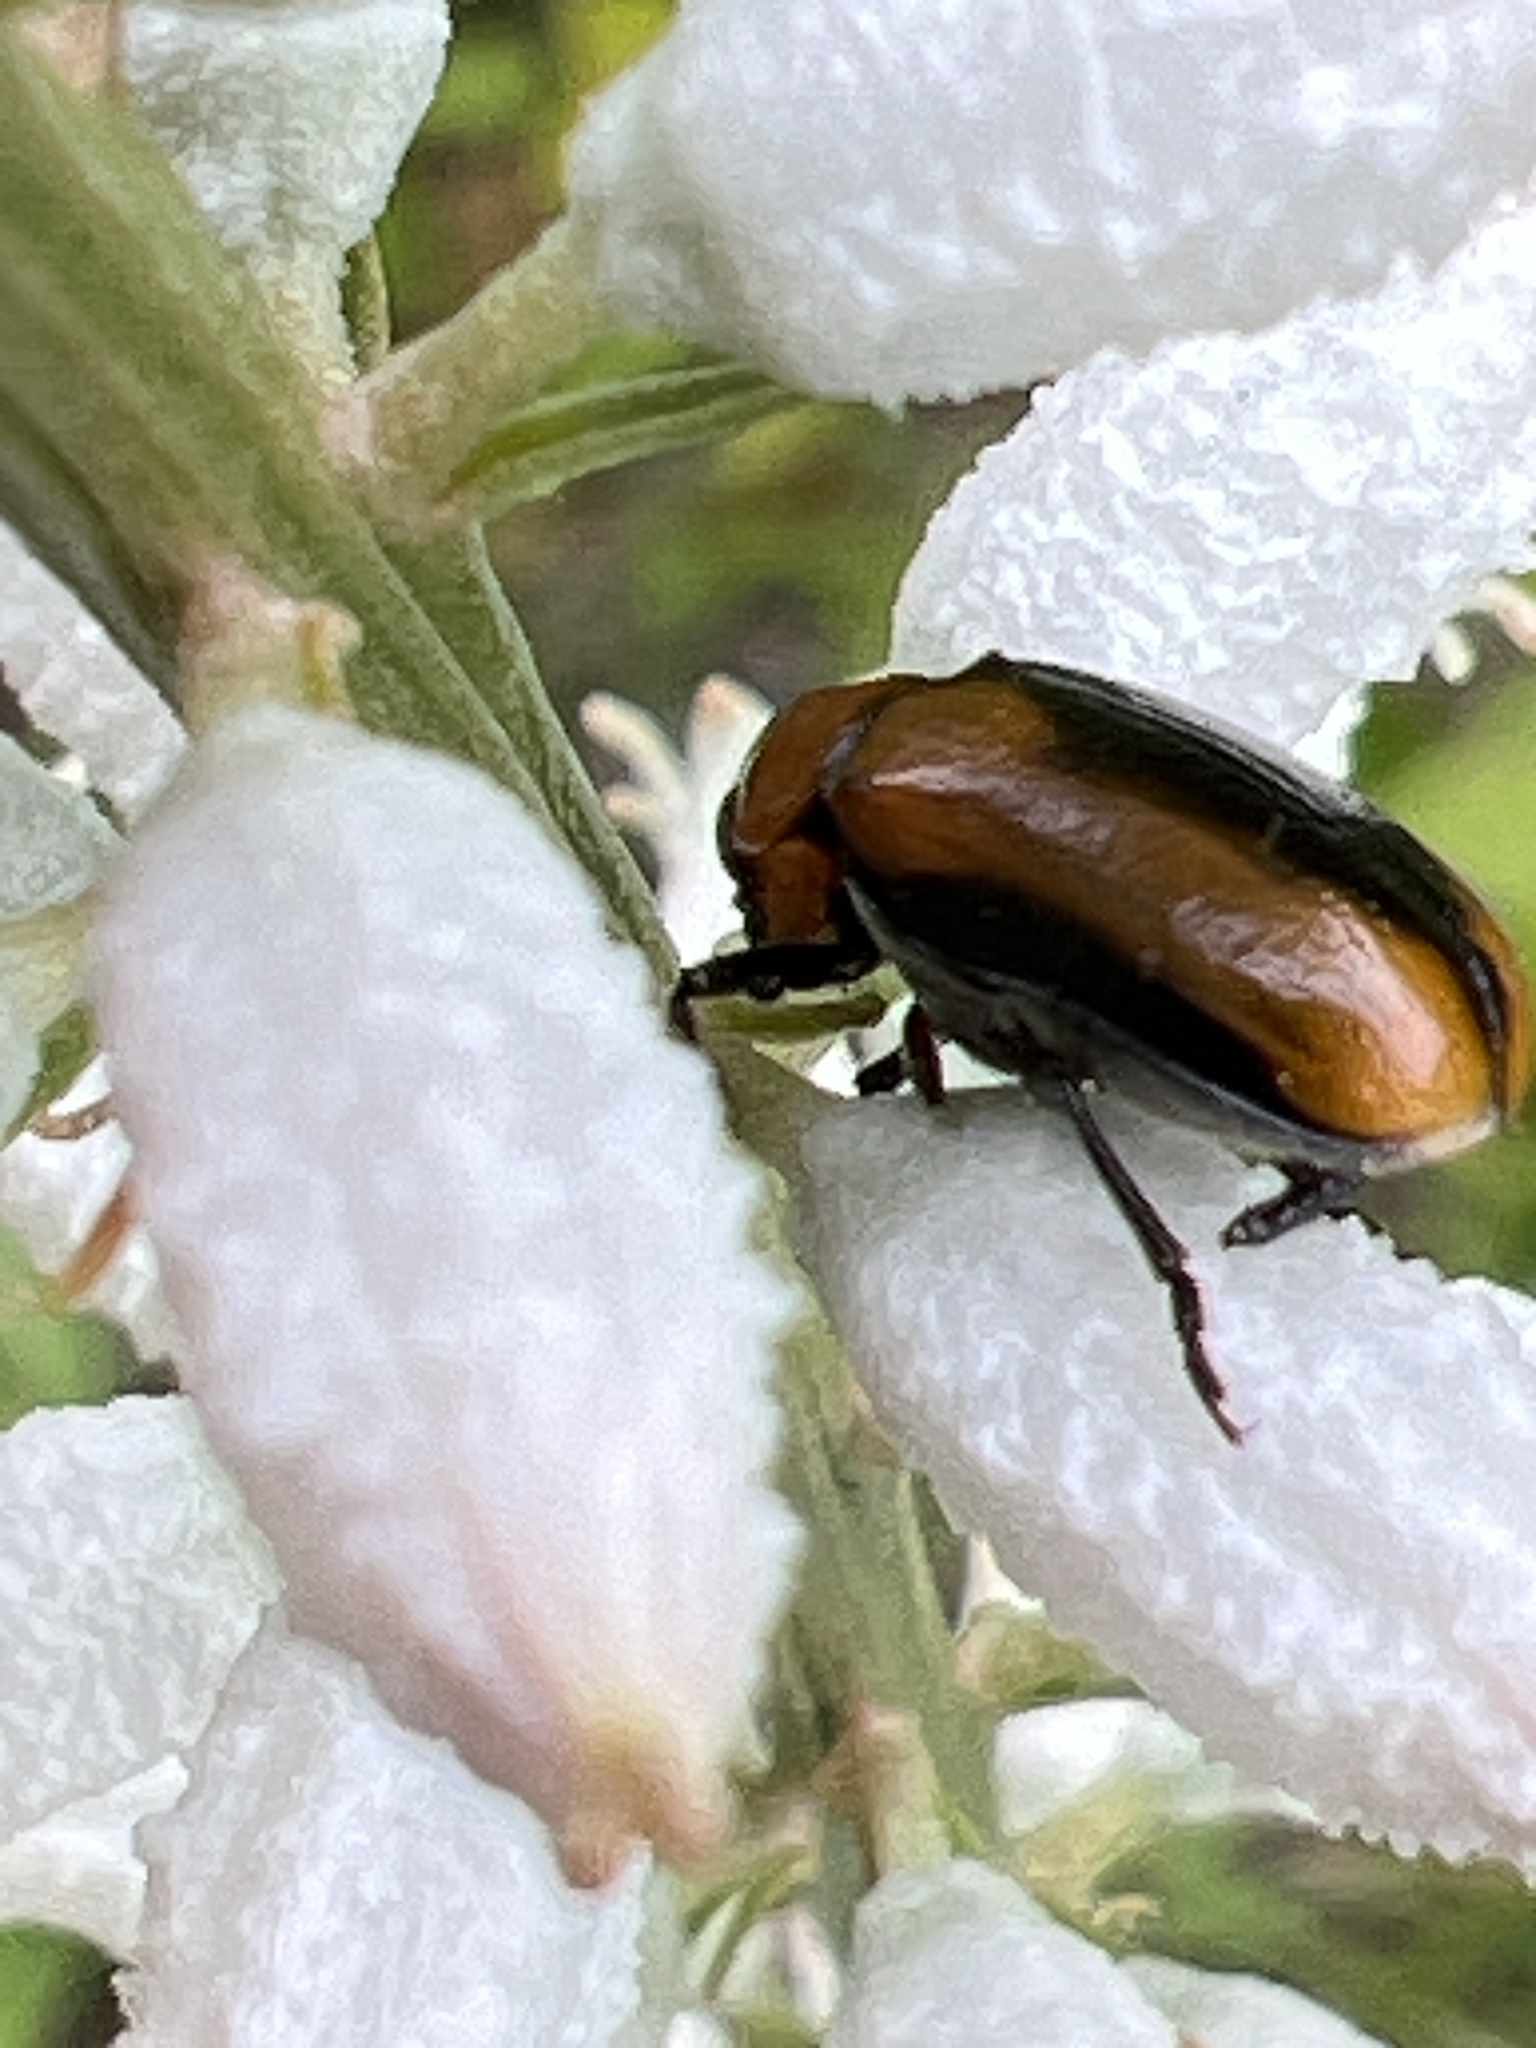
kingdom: Animalia
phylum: Arthropoda
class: Insecta
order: Coleoptera
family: Chrysomelidae
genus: Anomoea
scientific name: Anomoea laticlavia
